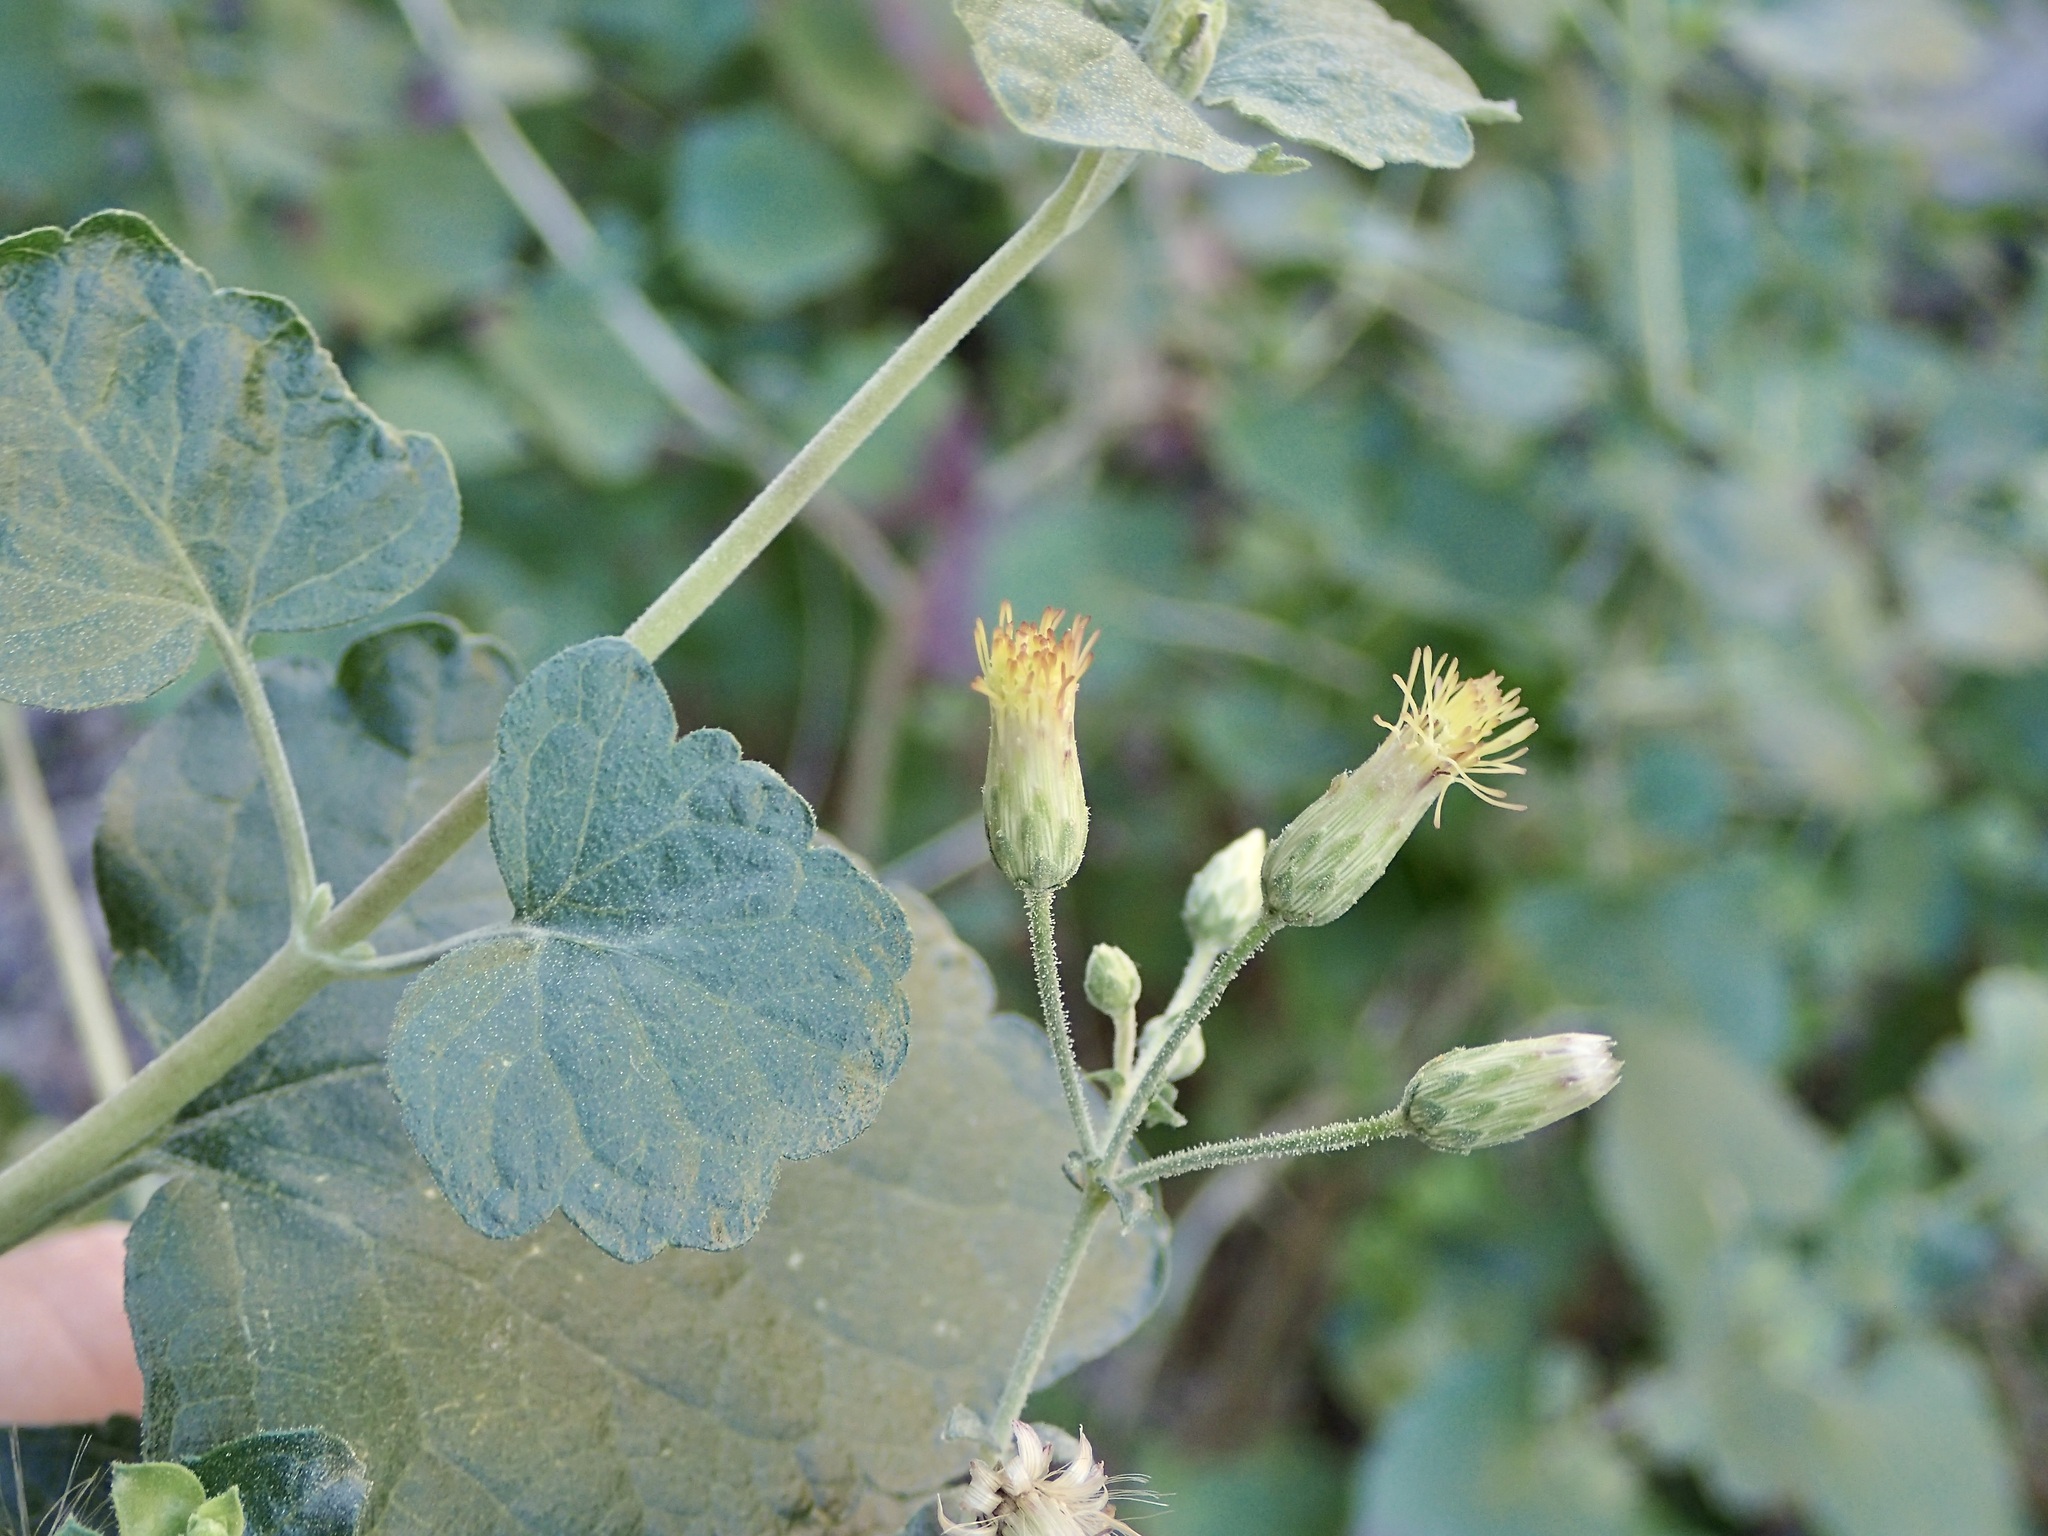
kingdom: Plantae
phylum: Tracheophyta
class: Magnoliopsida
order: Asterales
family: Asteraceae
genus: Brickellia
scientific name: Brickellia rhomboidea
